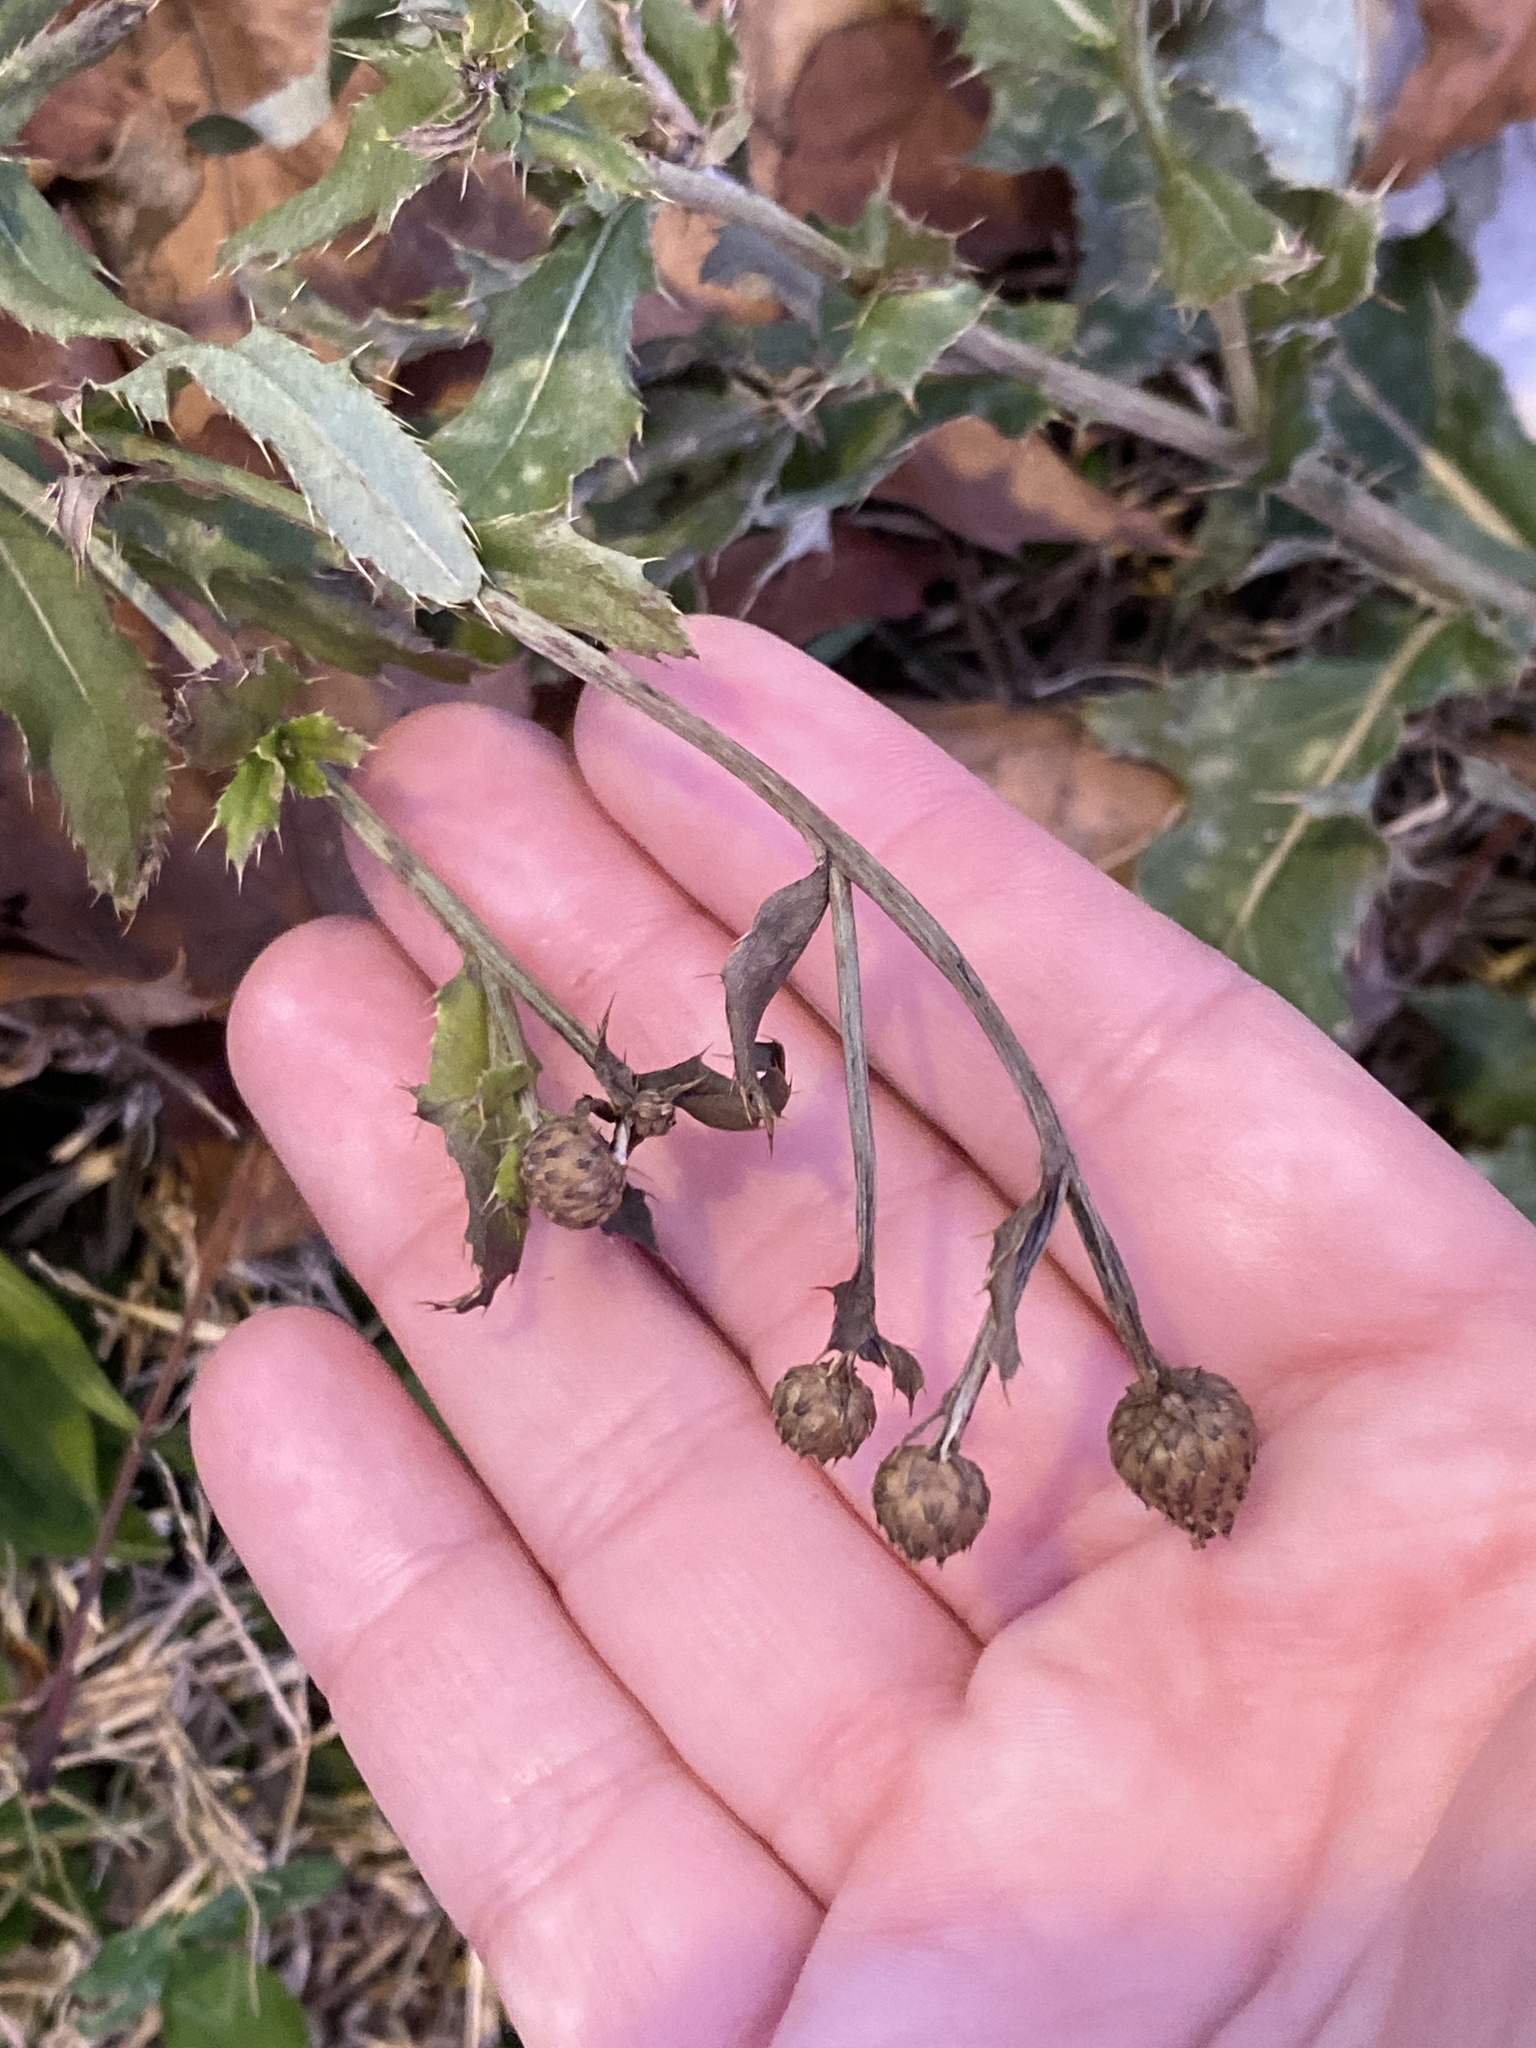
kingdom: Plantae
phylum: Tracheophyta
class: Magnoliopsida
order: Asterales
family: Asteraceae
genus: Cirsium
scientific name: Cirsium arvense
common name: Creeping thistle
